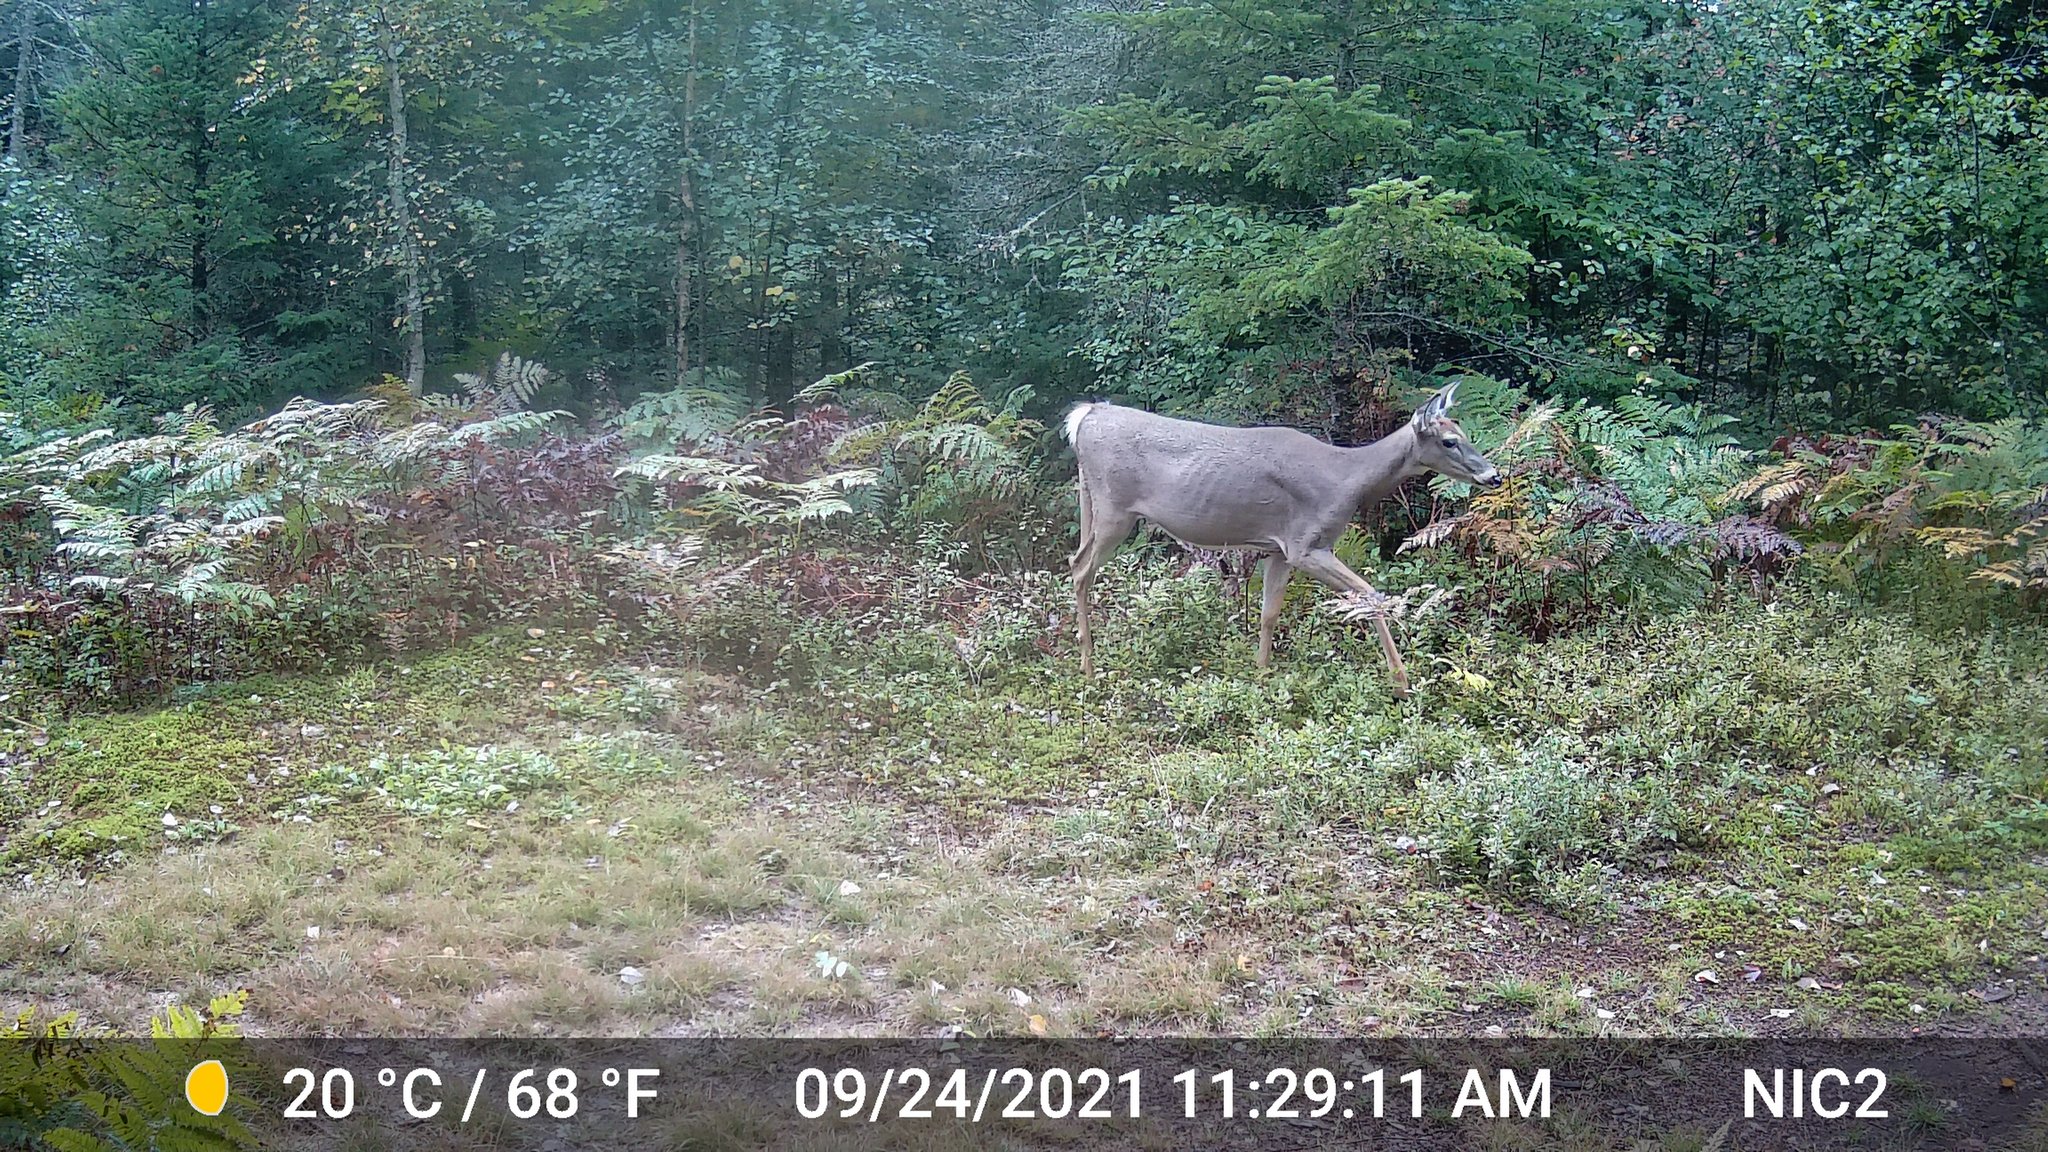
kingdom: Animalia
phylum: Chordata
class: Mammalia
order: Artiodactyla
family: Cervidae
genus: Odocoileus
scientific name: Odocoileus virginianus
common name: White-tailed deer
